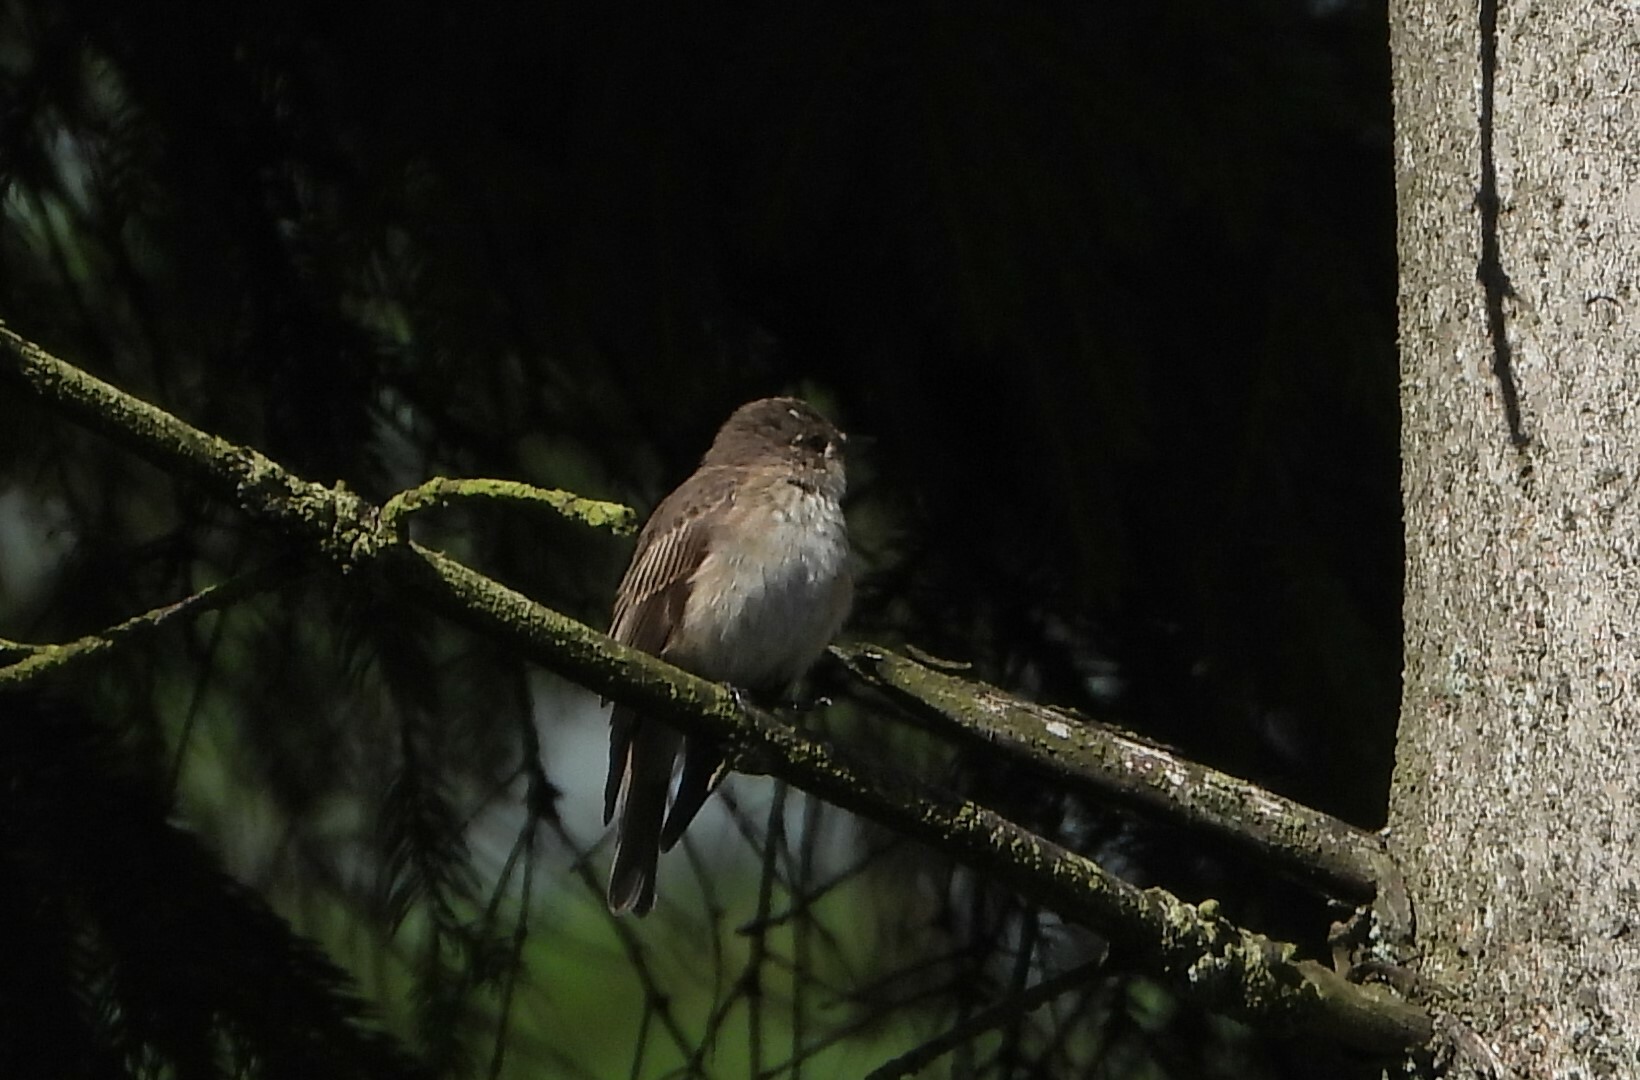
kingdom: Animalia
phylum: Chordata
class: Aves
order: Passeriformes
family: Muscicapidae
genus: Muscicapa
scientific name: Muscicapa striata
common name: Spotted flycatcher
